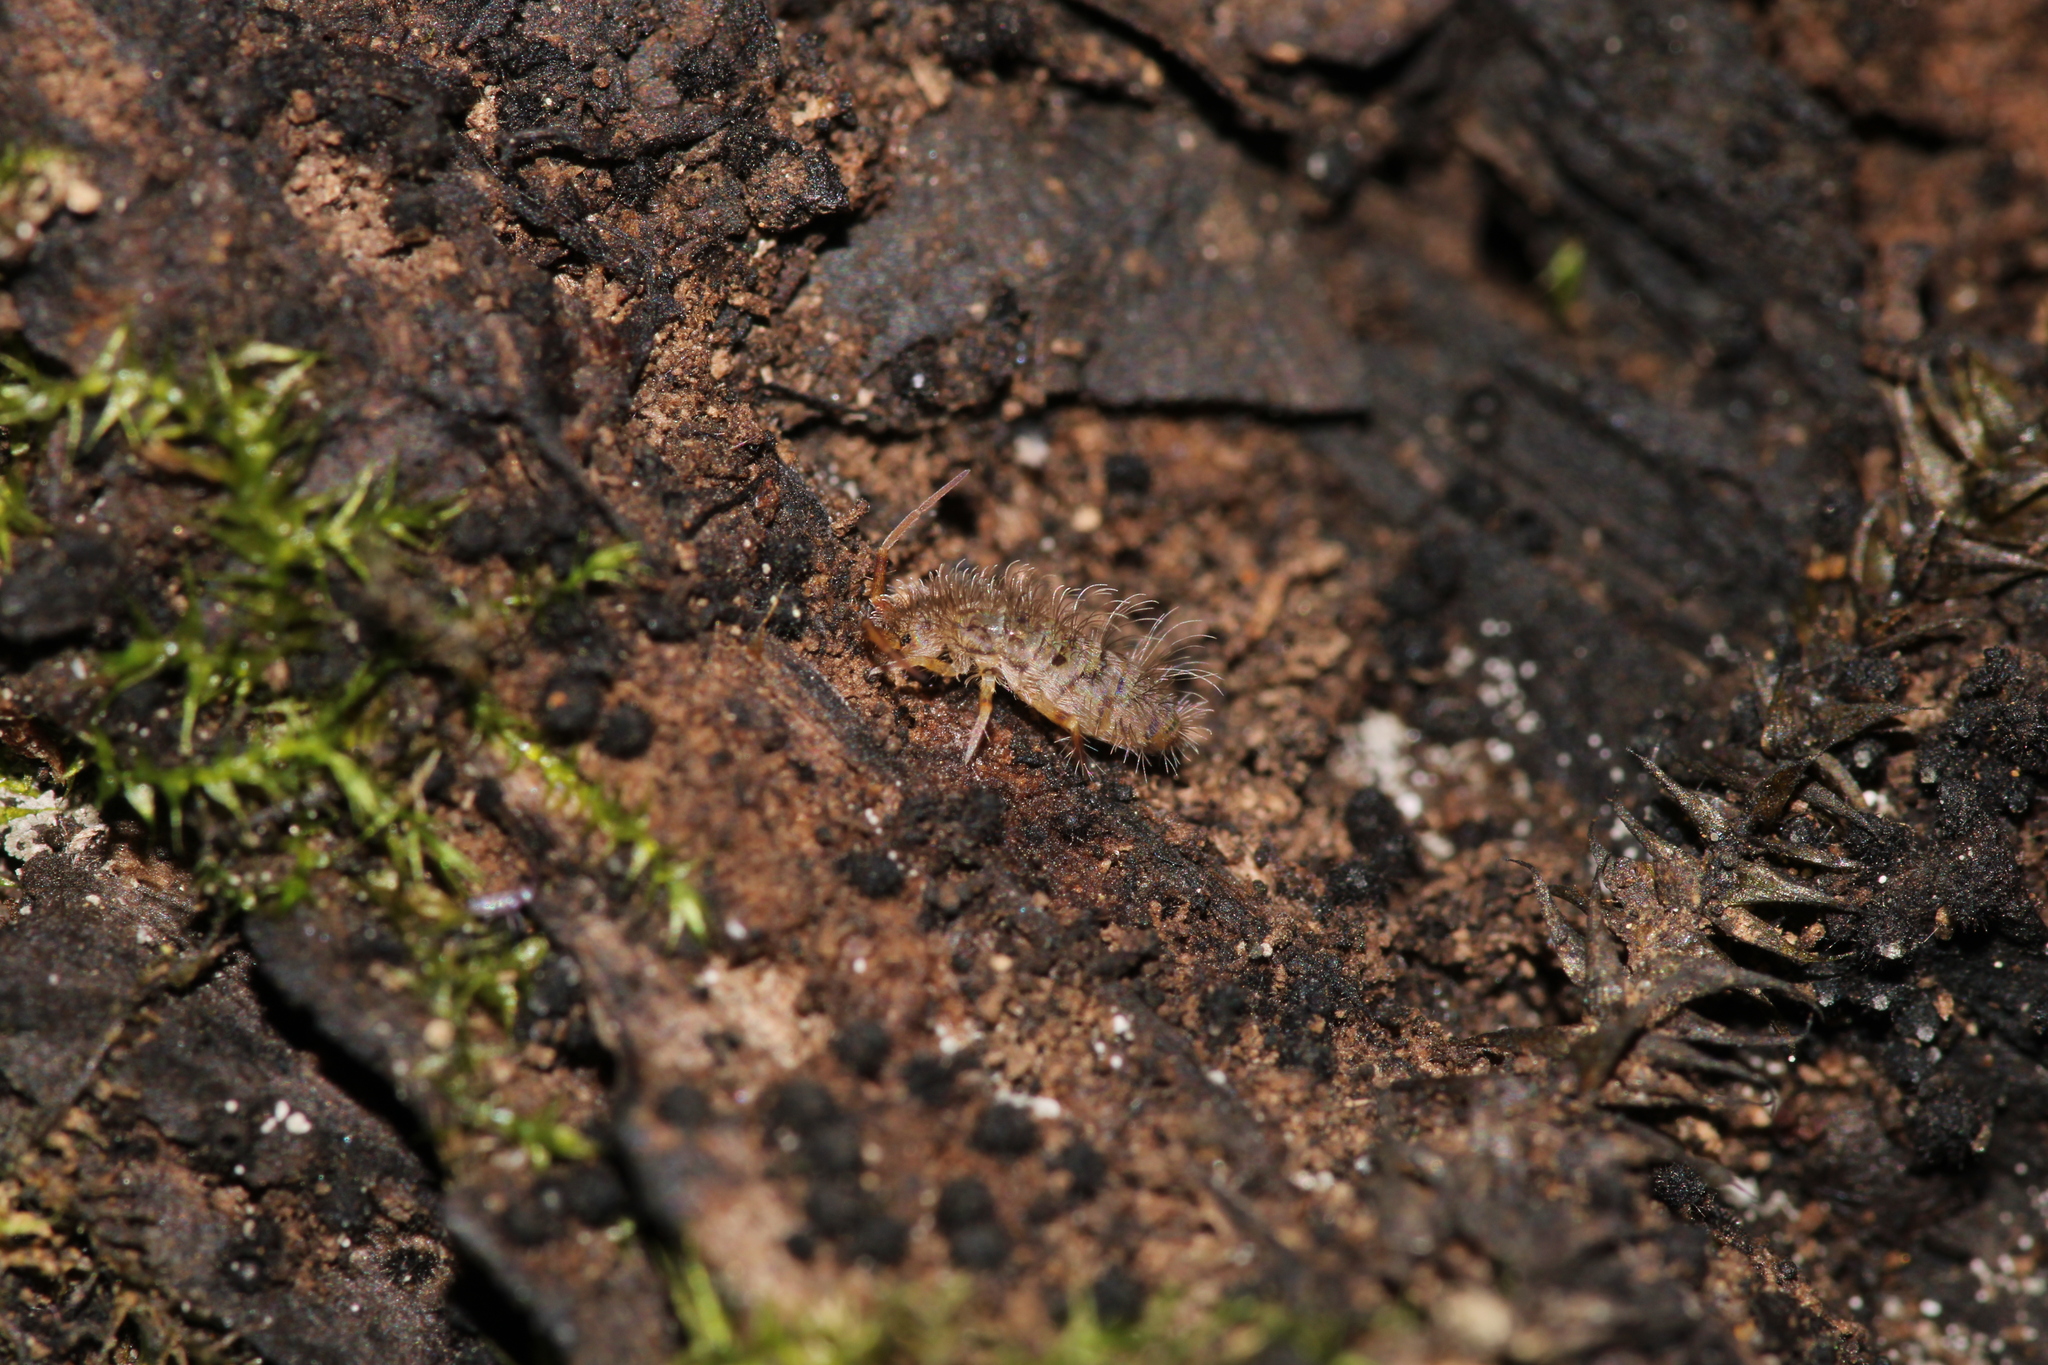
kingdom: Animalia
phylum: Arthropoda
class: Collembola
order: Entomobryomorpha
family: Orchesellidae
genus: Orchesella
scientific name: Orchesella villosa
